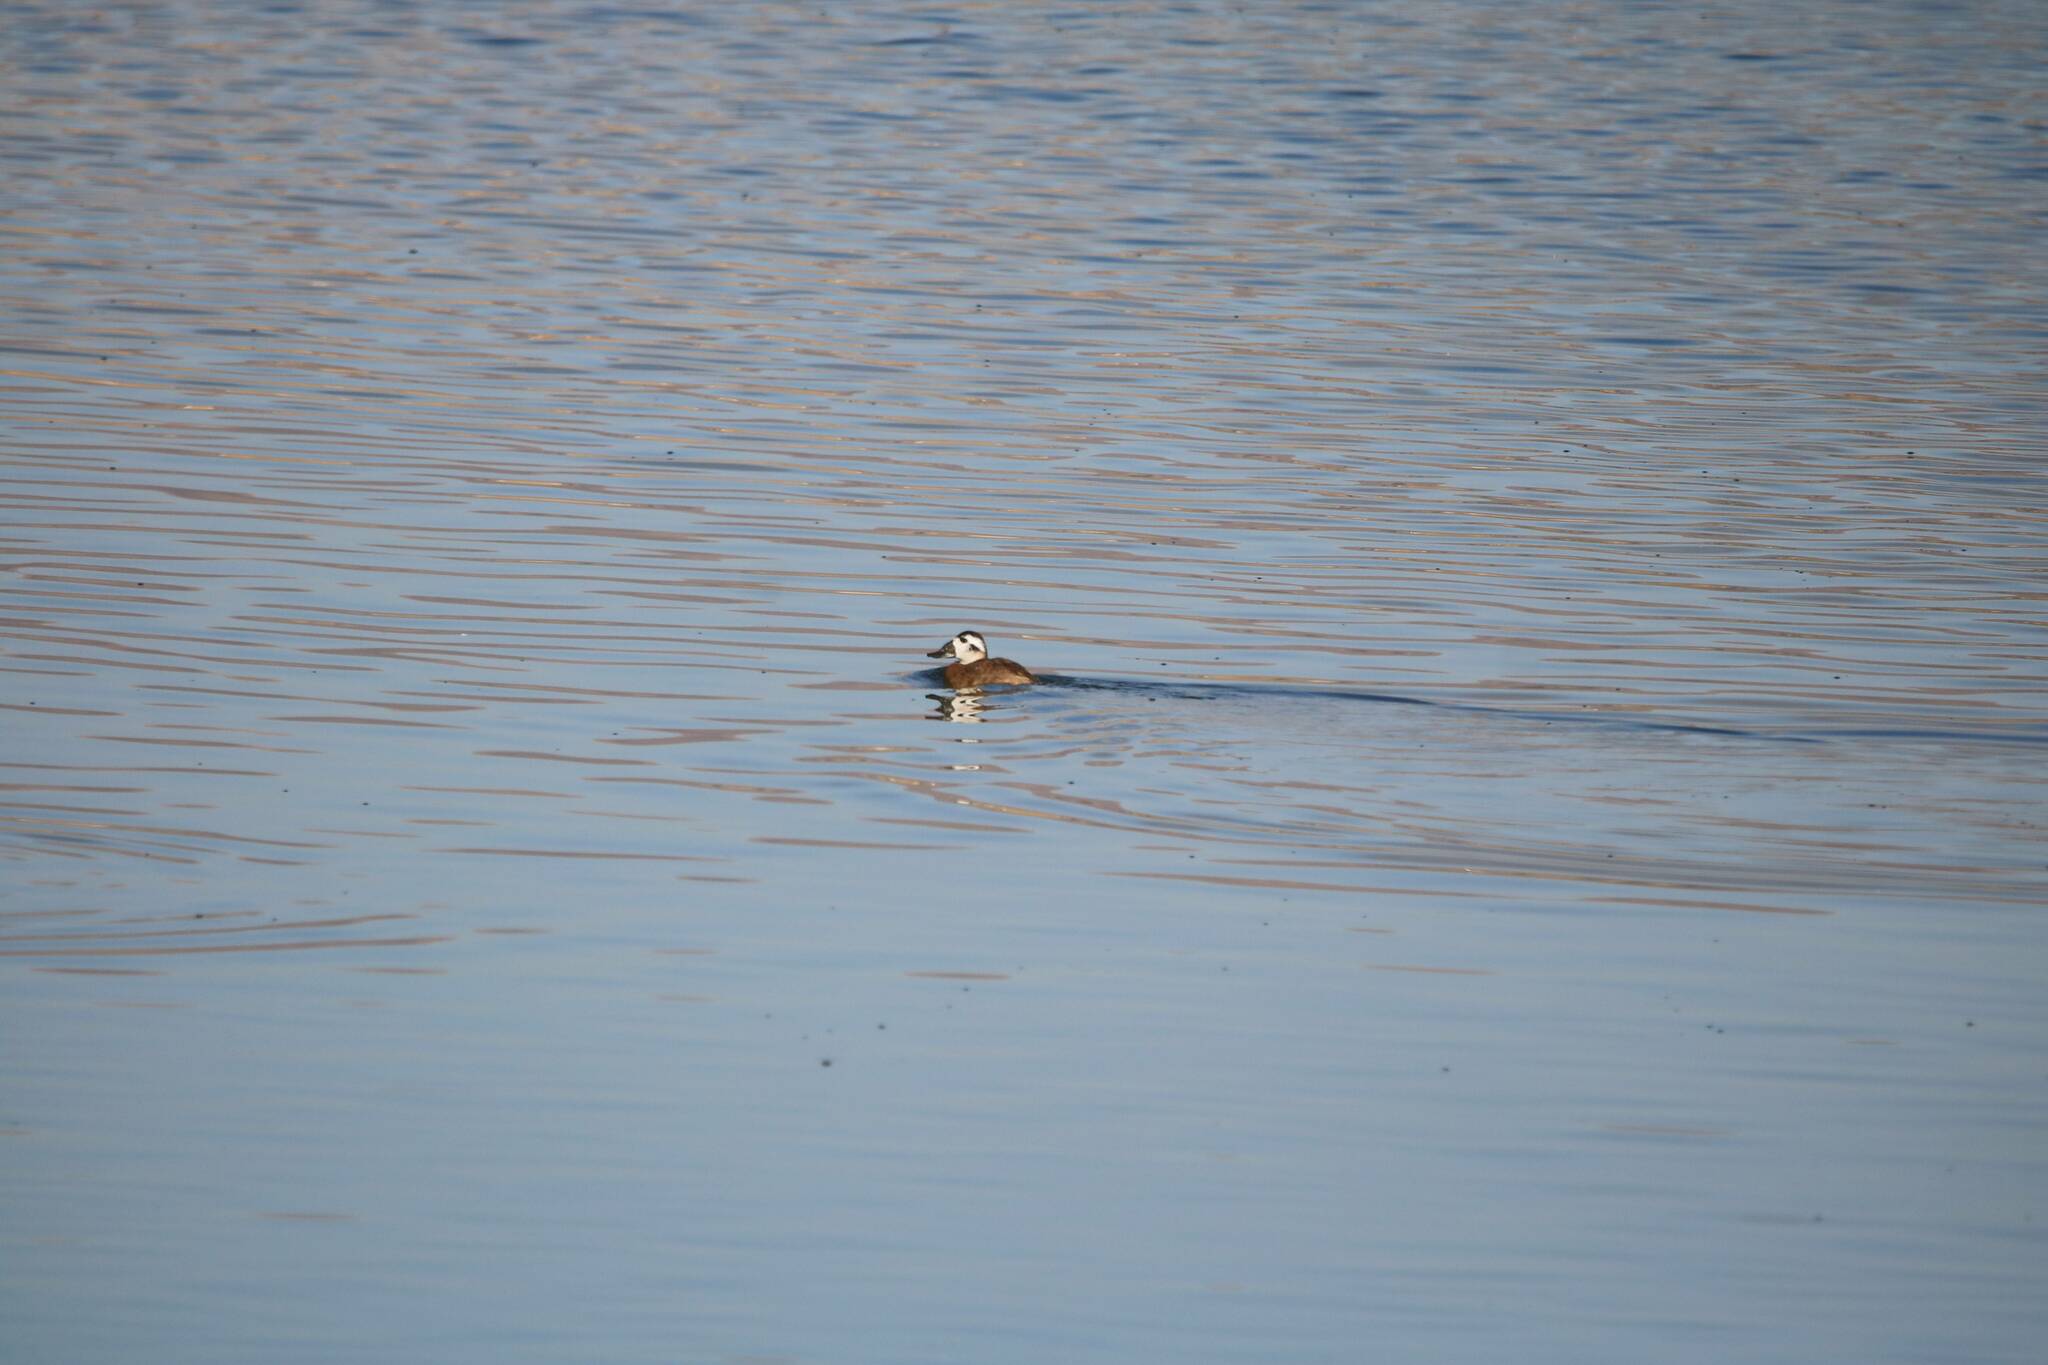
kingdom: Animalia
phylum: Chordata
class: Aves
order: Anseriformes
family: Anatidae
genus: Oxyura
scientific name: Oxyura leucocephala
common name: White-headed duck
